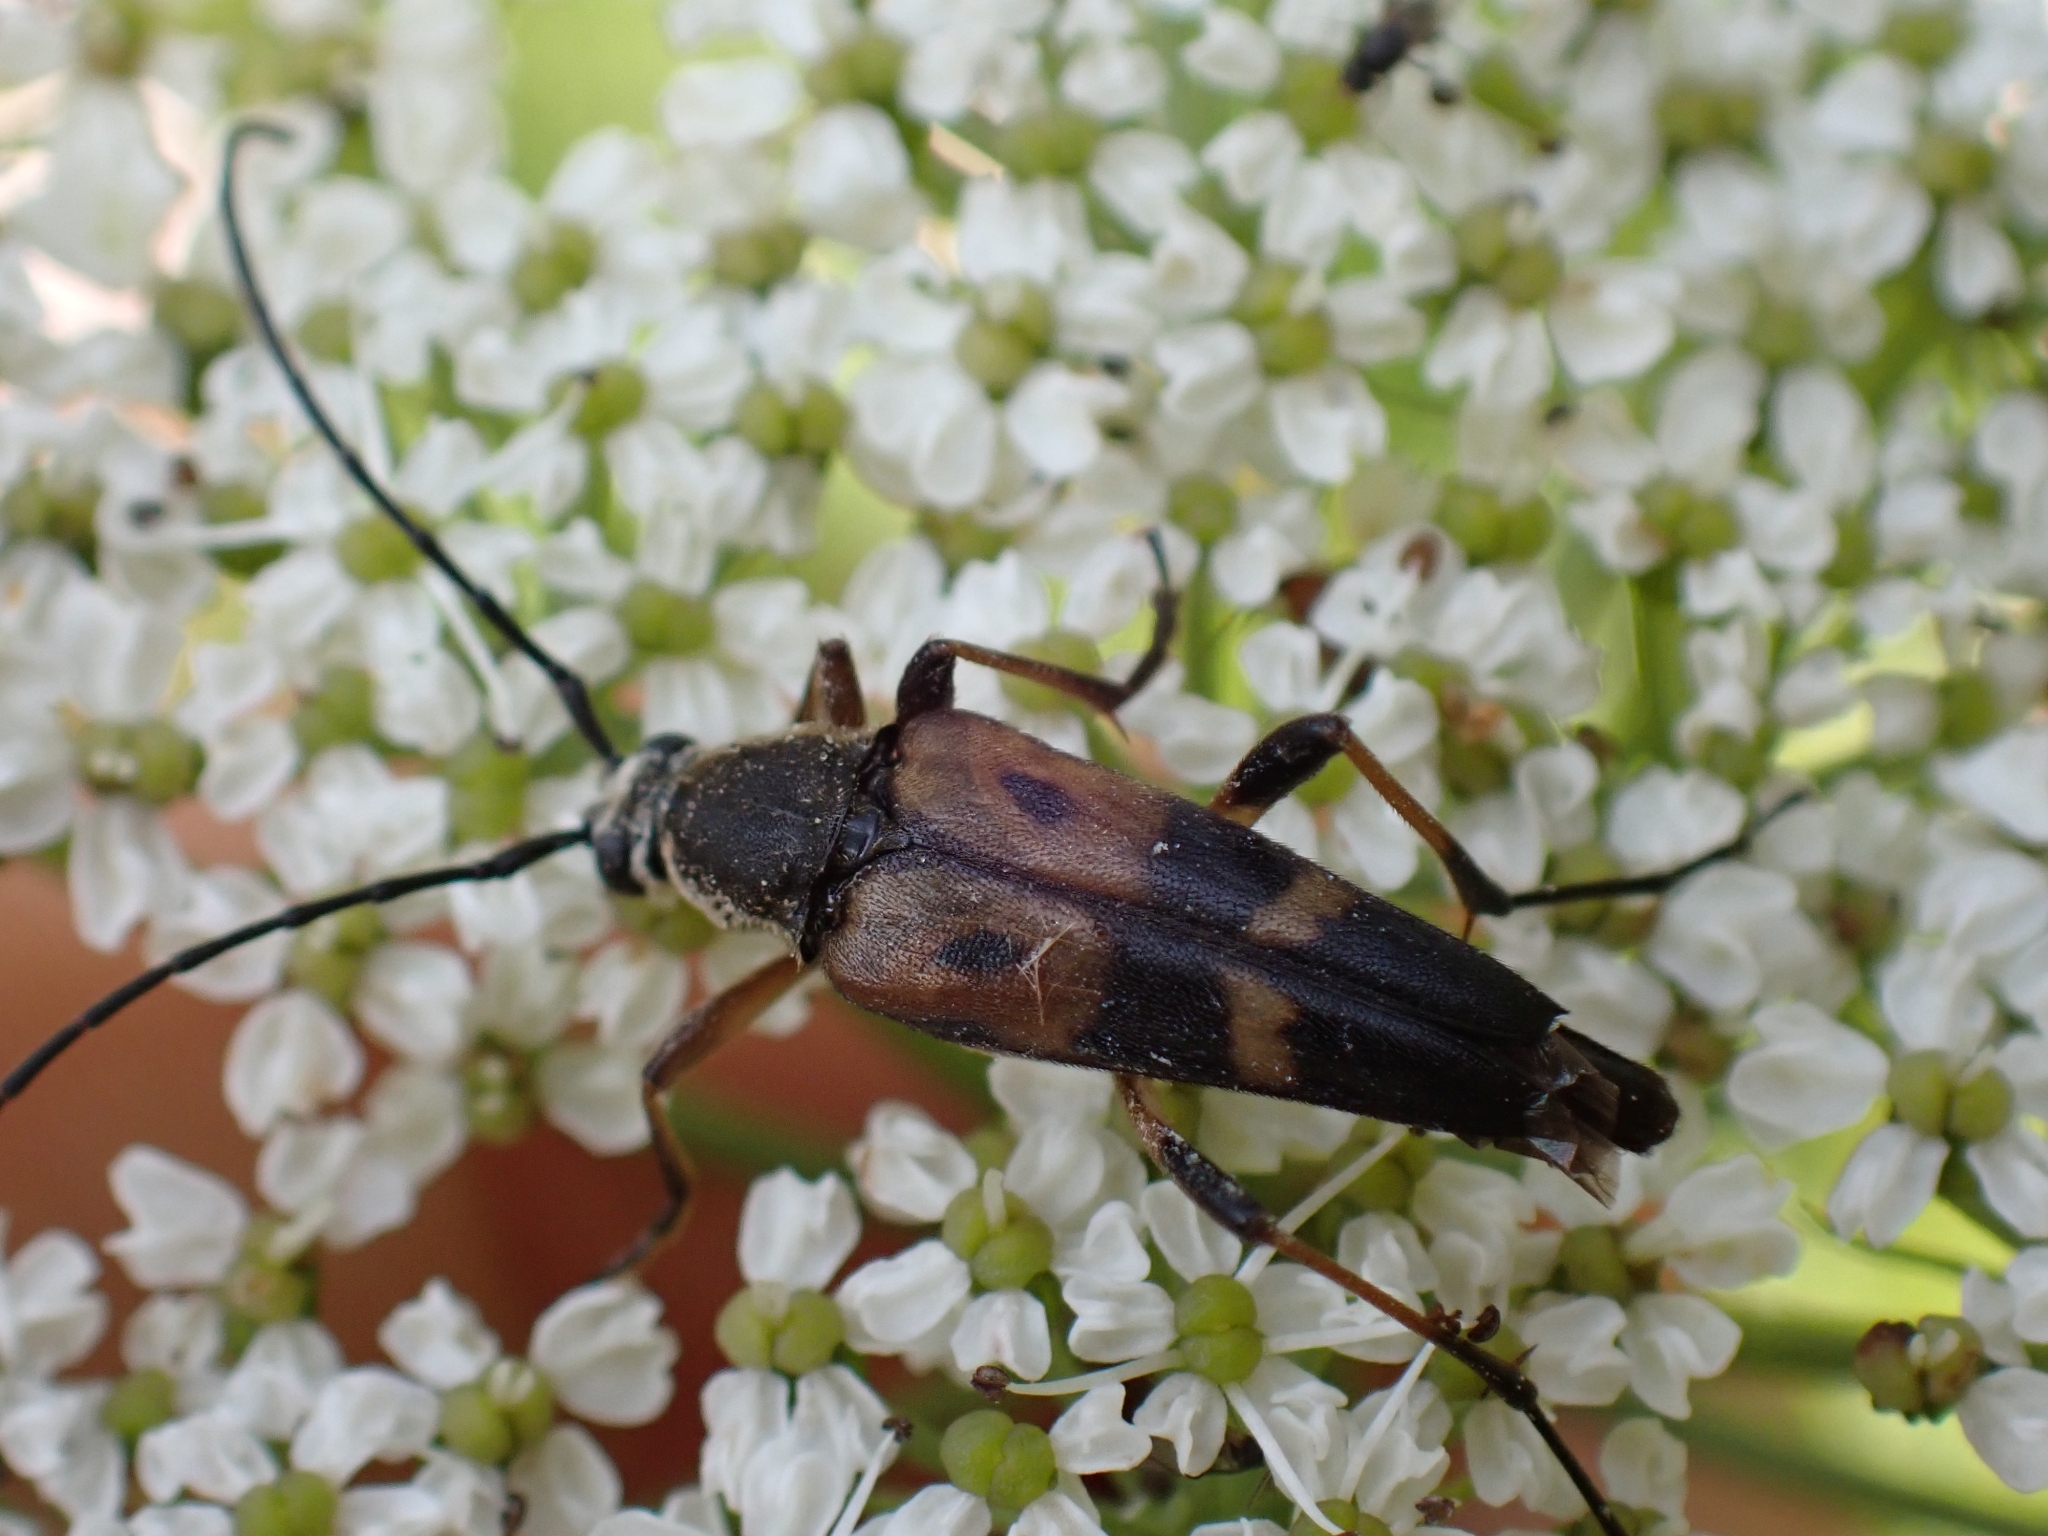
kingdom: Animalia
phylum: Arthropoda
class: Insecta
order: Coleoptera
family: Cerambycidae
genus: Etorofus
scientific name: Etorofus obliteratus
